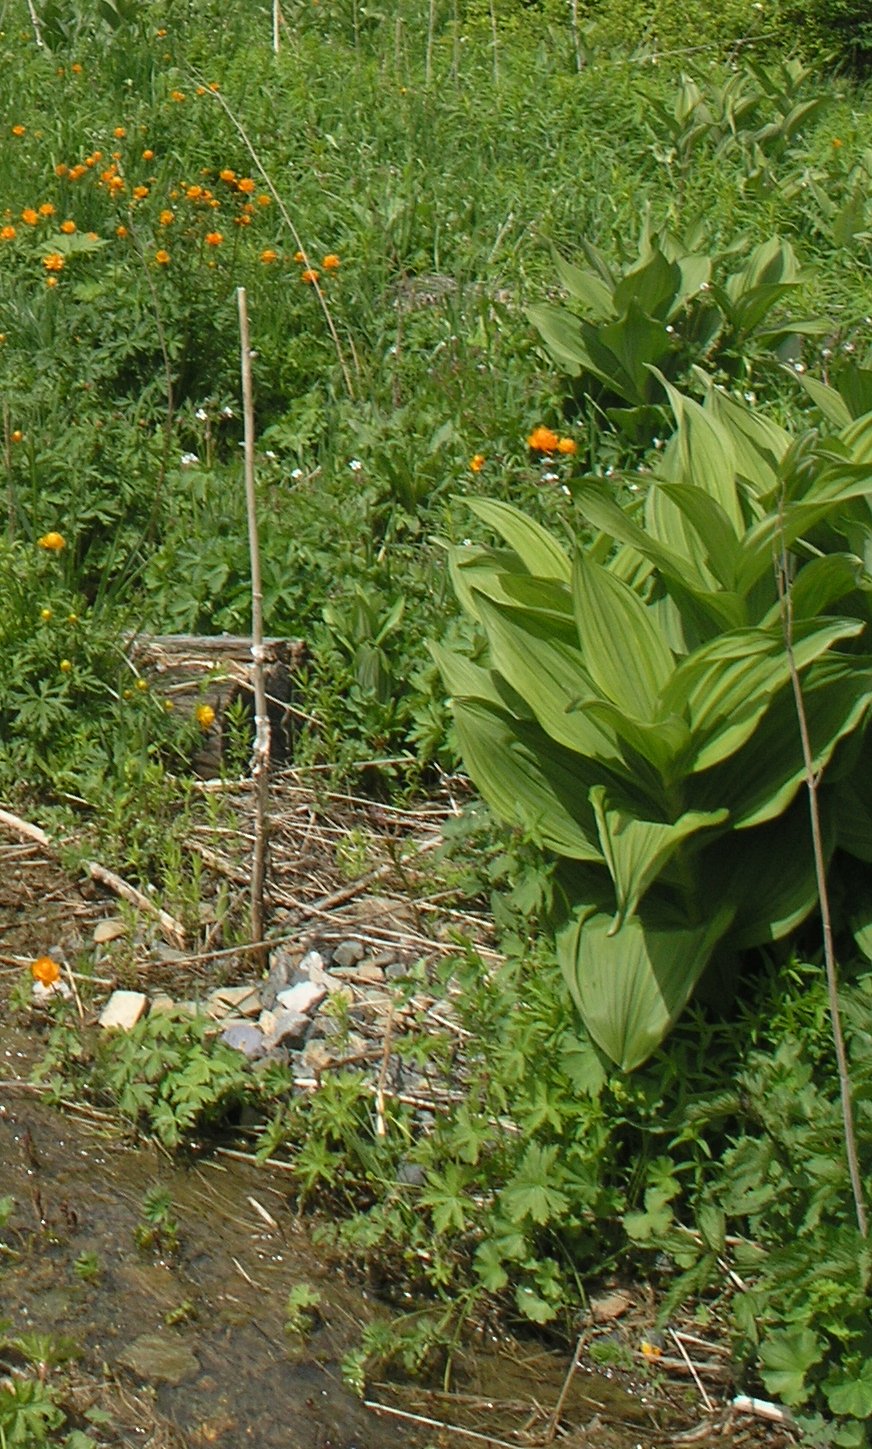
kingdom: Plantae
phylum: Tracheophyta
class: Pinopsida
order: Pinales
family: Pinaceae
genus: Picea
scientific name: Picea obovata
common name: Siberian spruce
